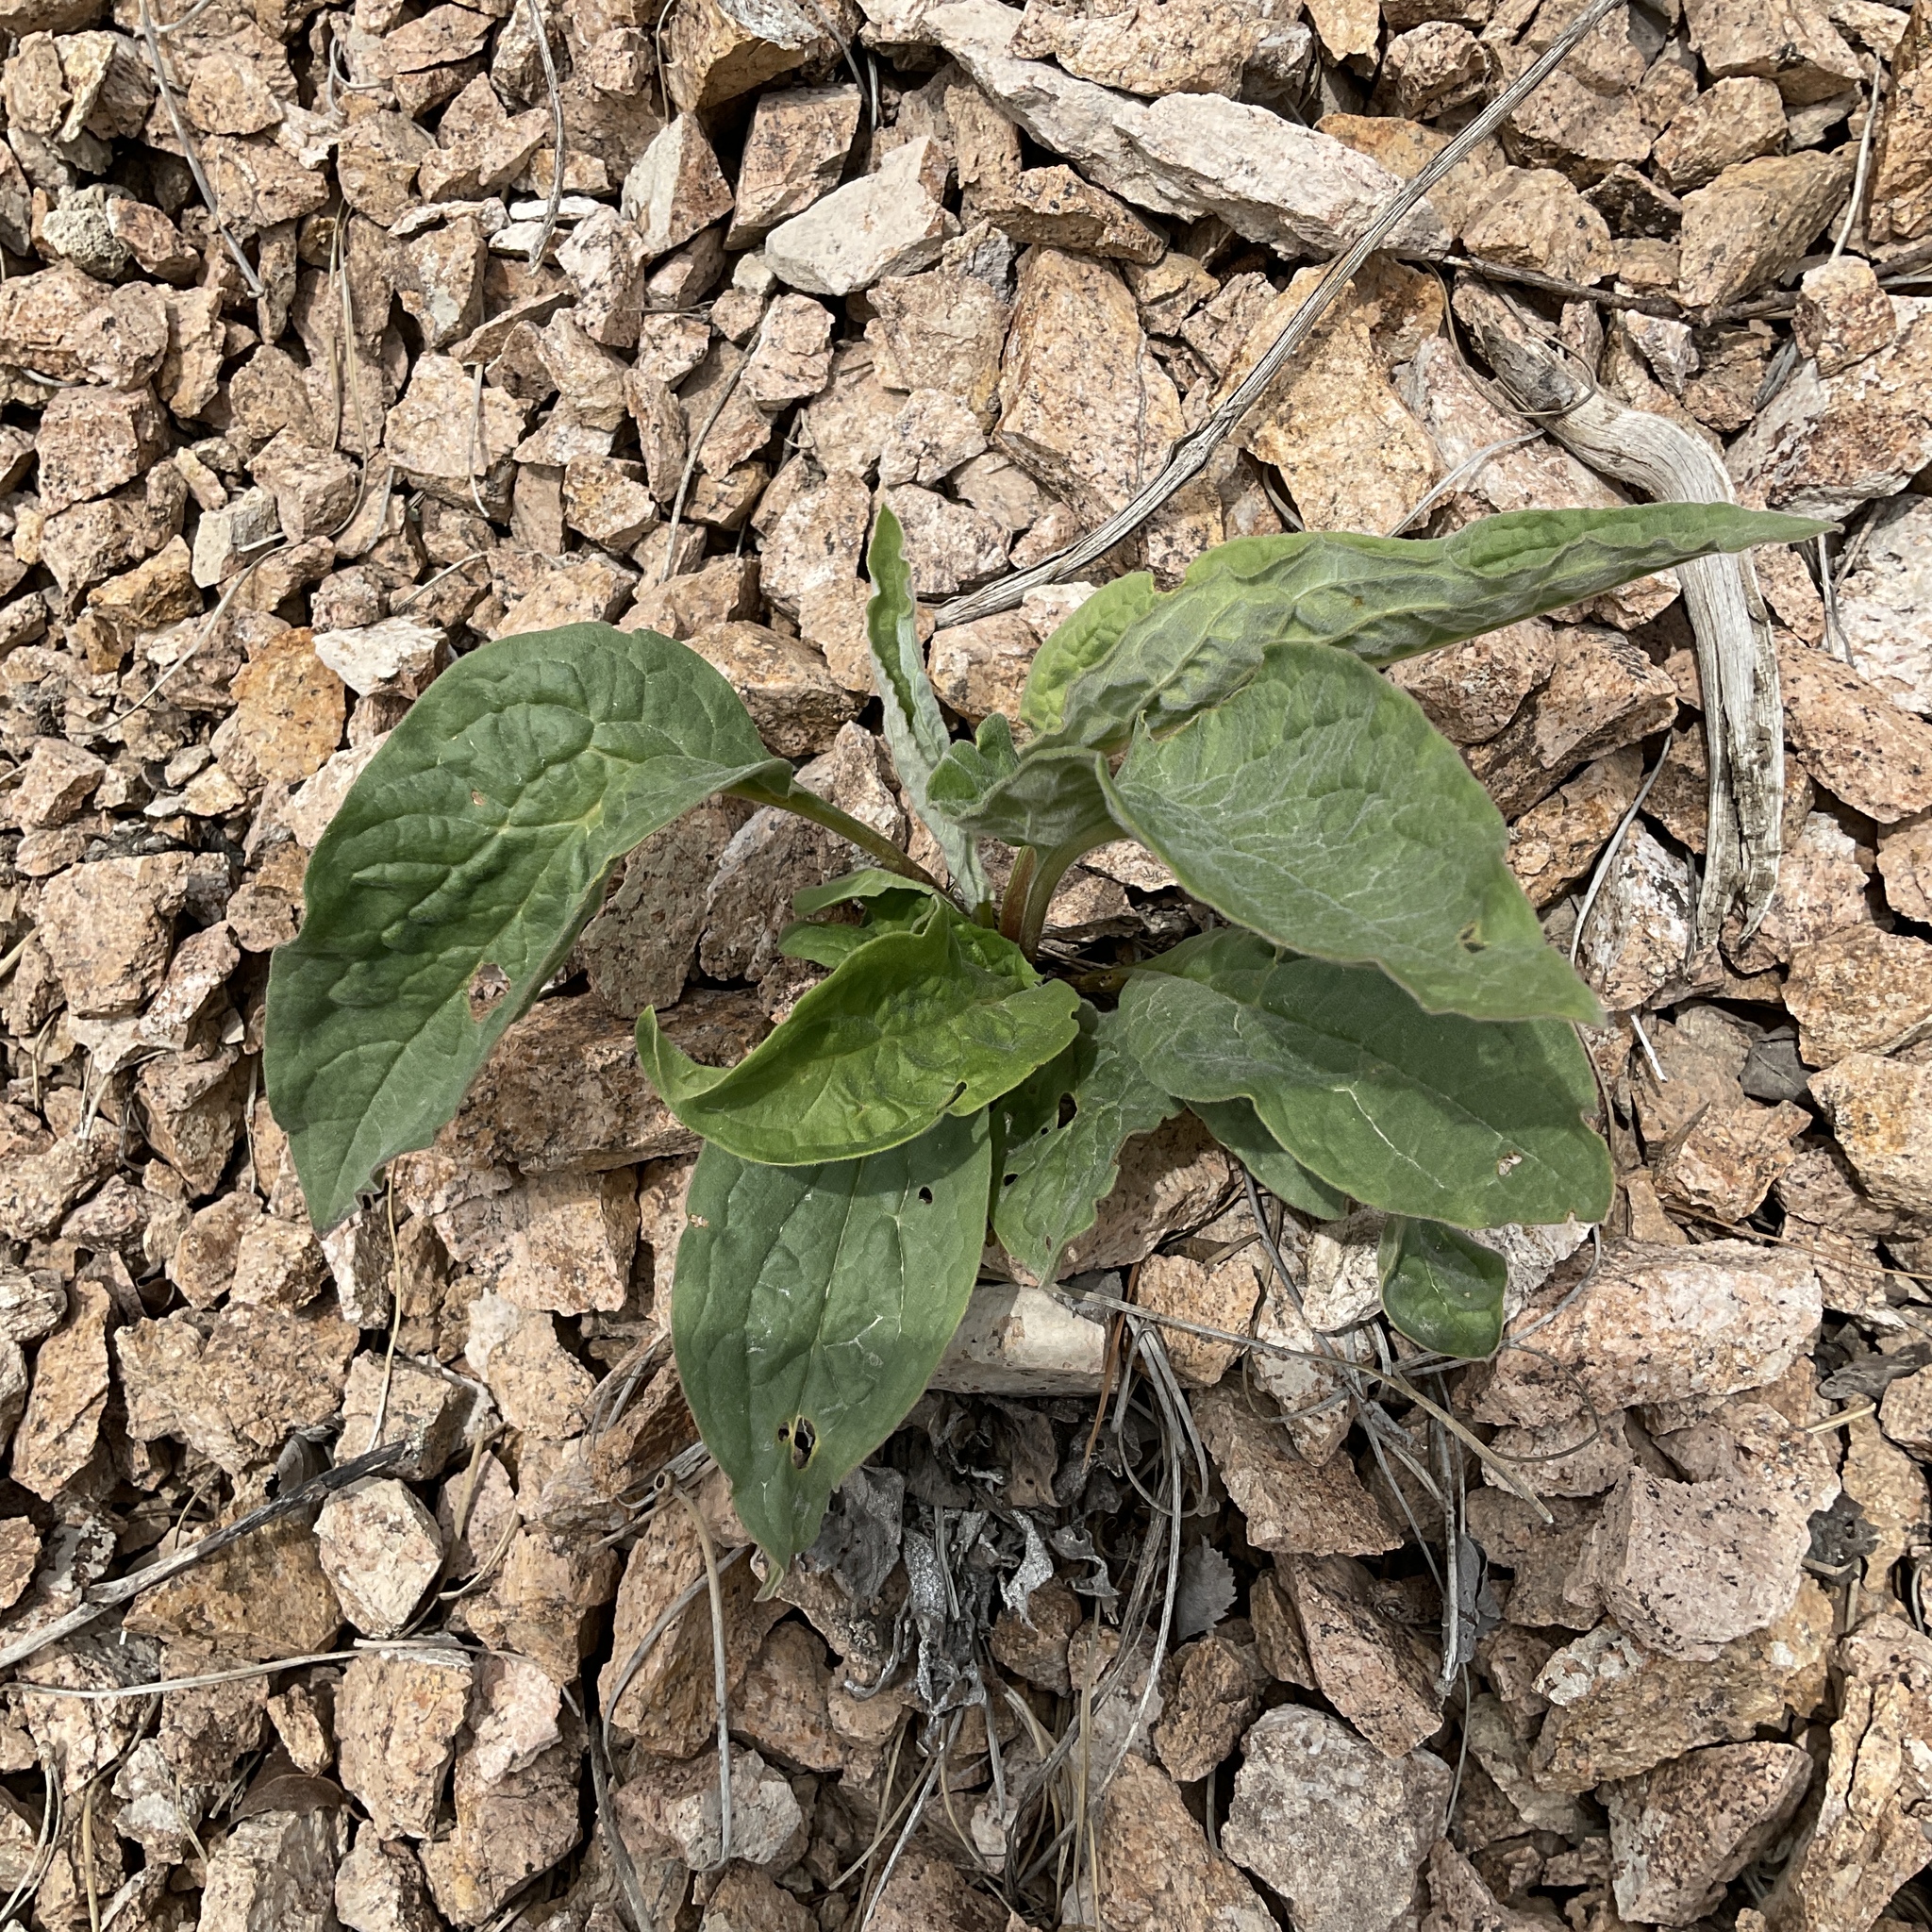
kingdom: Plantae
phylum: Tracheophyta
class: Magnoliopsida
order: Boraginales
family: Boraginaceae
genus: Cynoglossum
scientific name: Cynoglossum officinale
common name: Hound's-tongue
